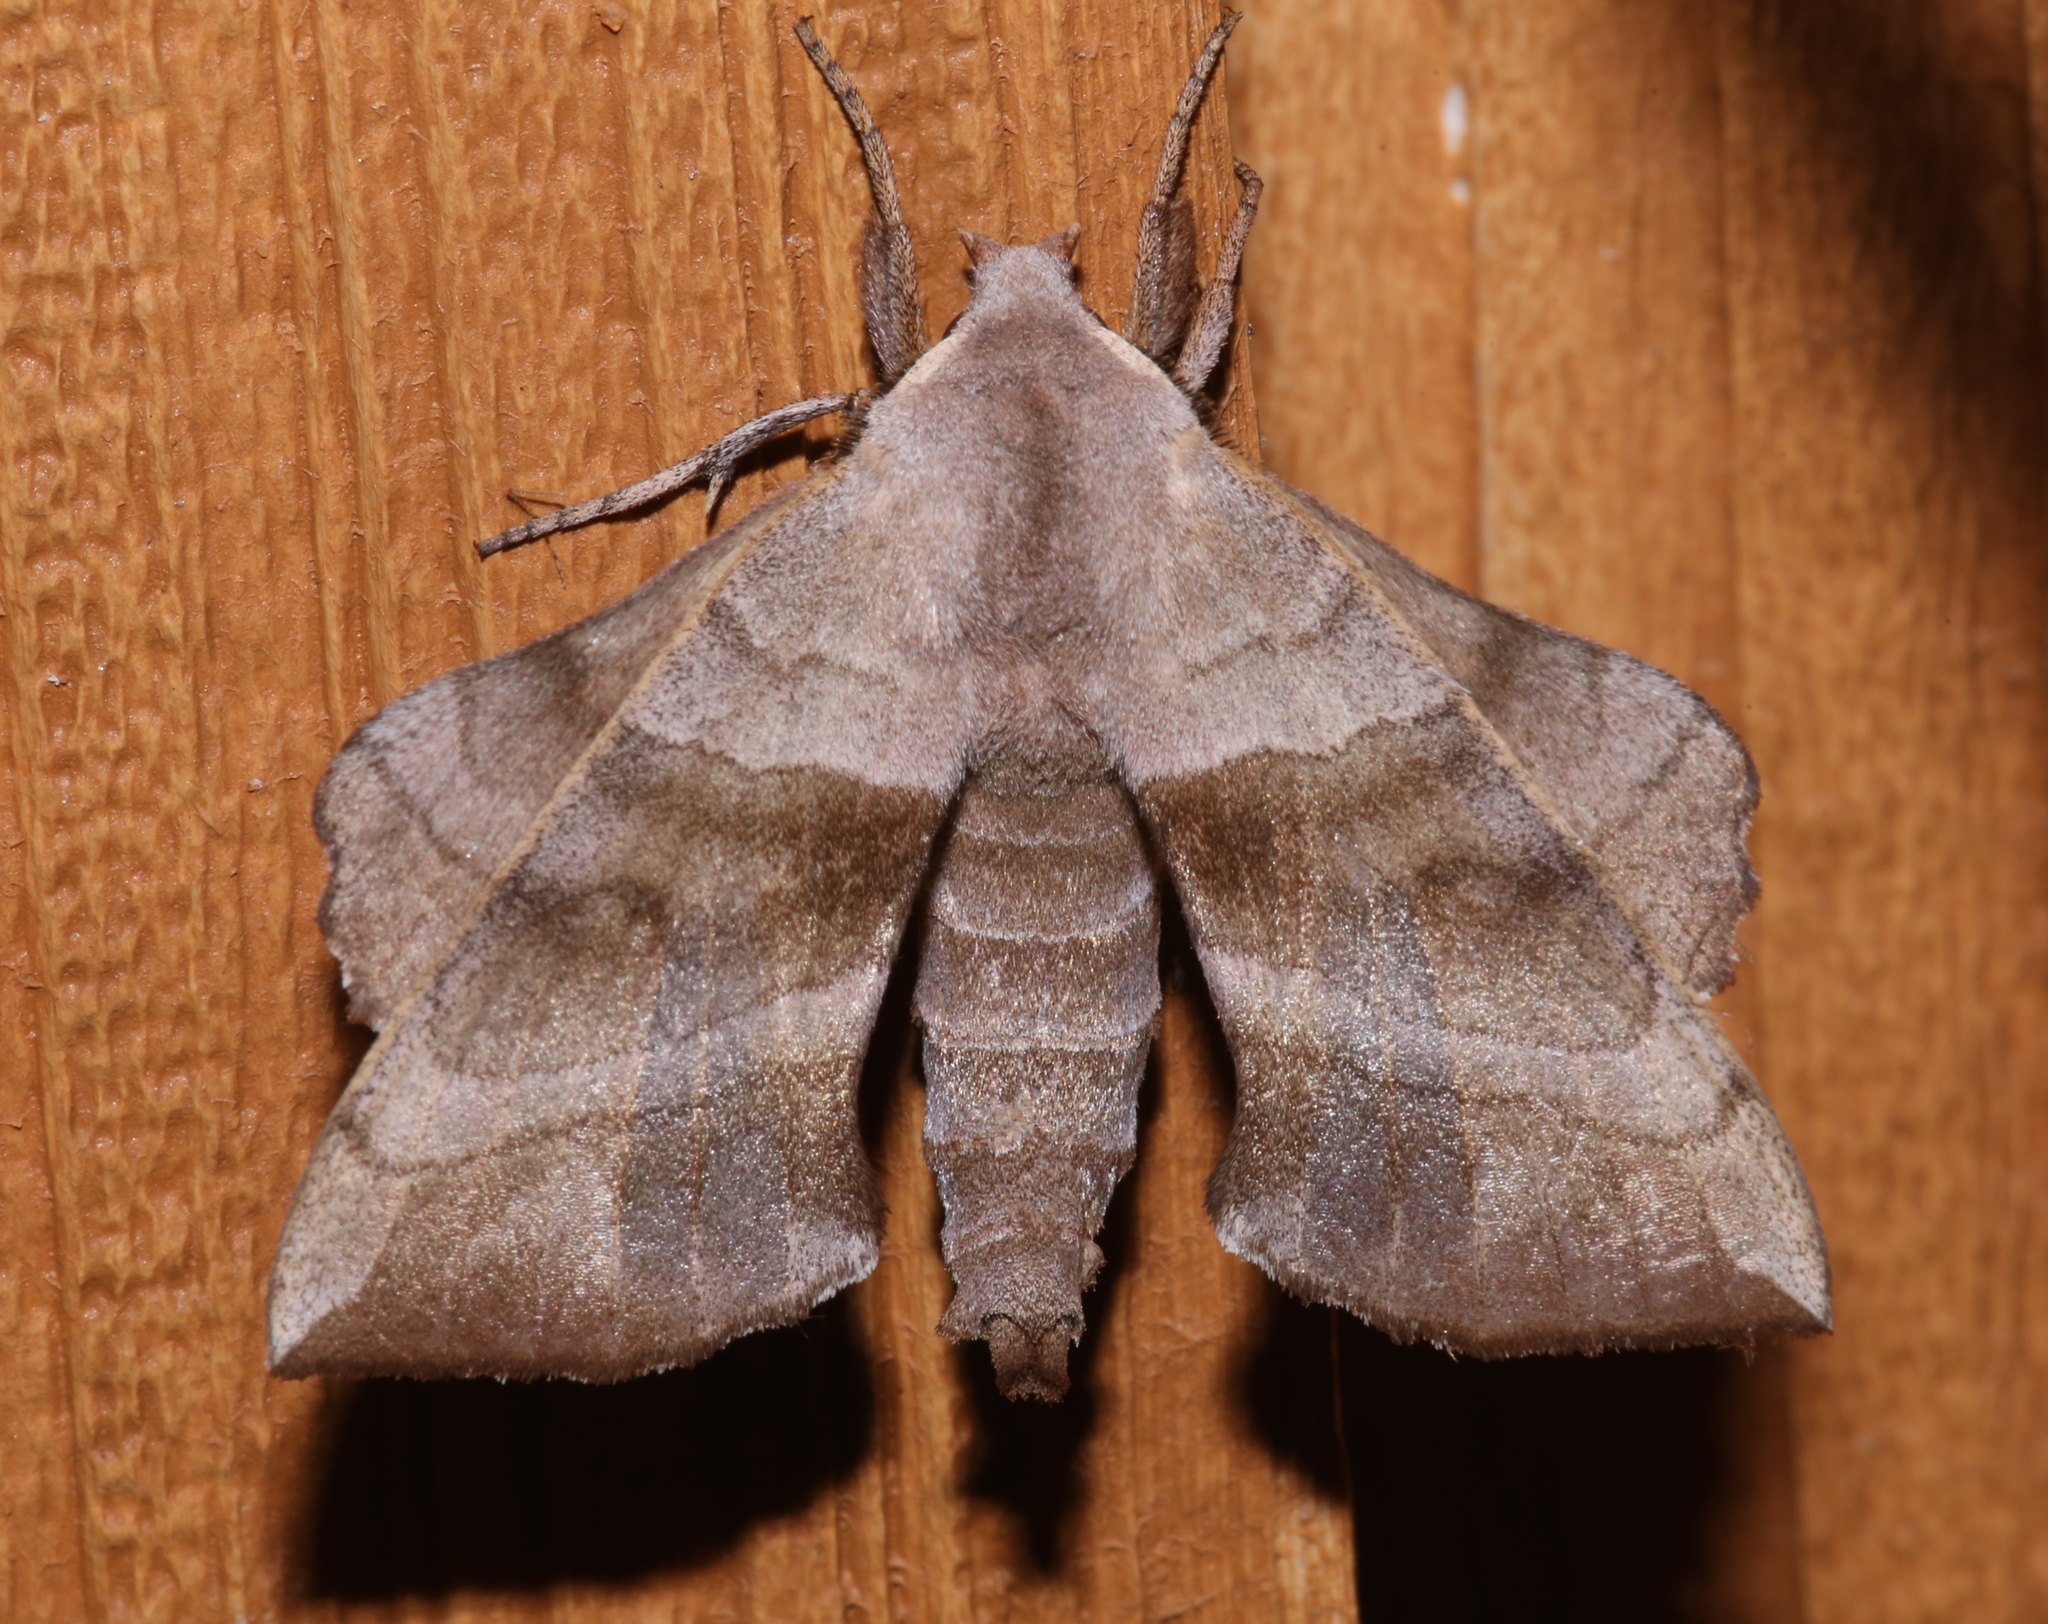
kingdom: Animalia
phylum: Arthropoda
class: Insecta
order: Lepidoptera
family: Sphingidae
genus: Amorpha
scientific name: Amorpha juglandis
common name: Walnut sphinx
